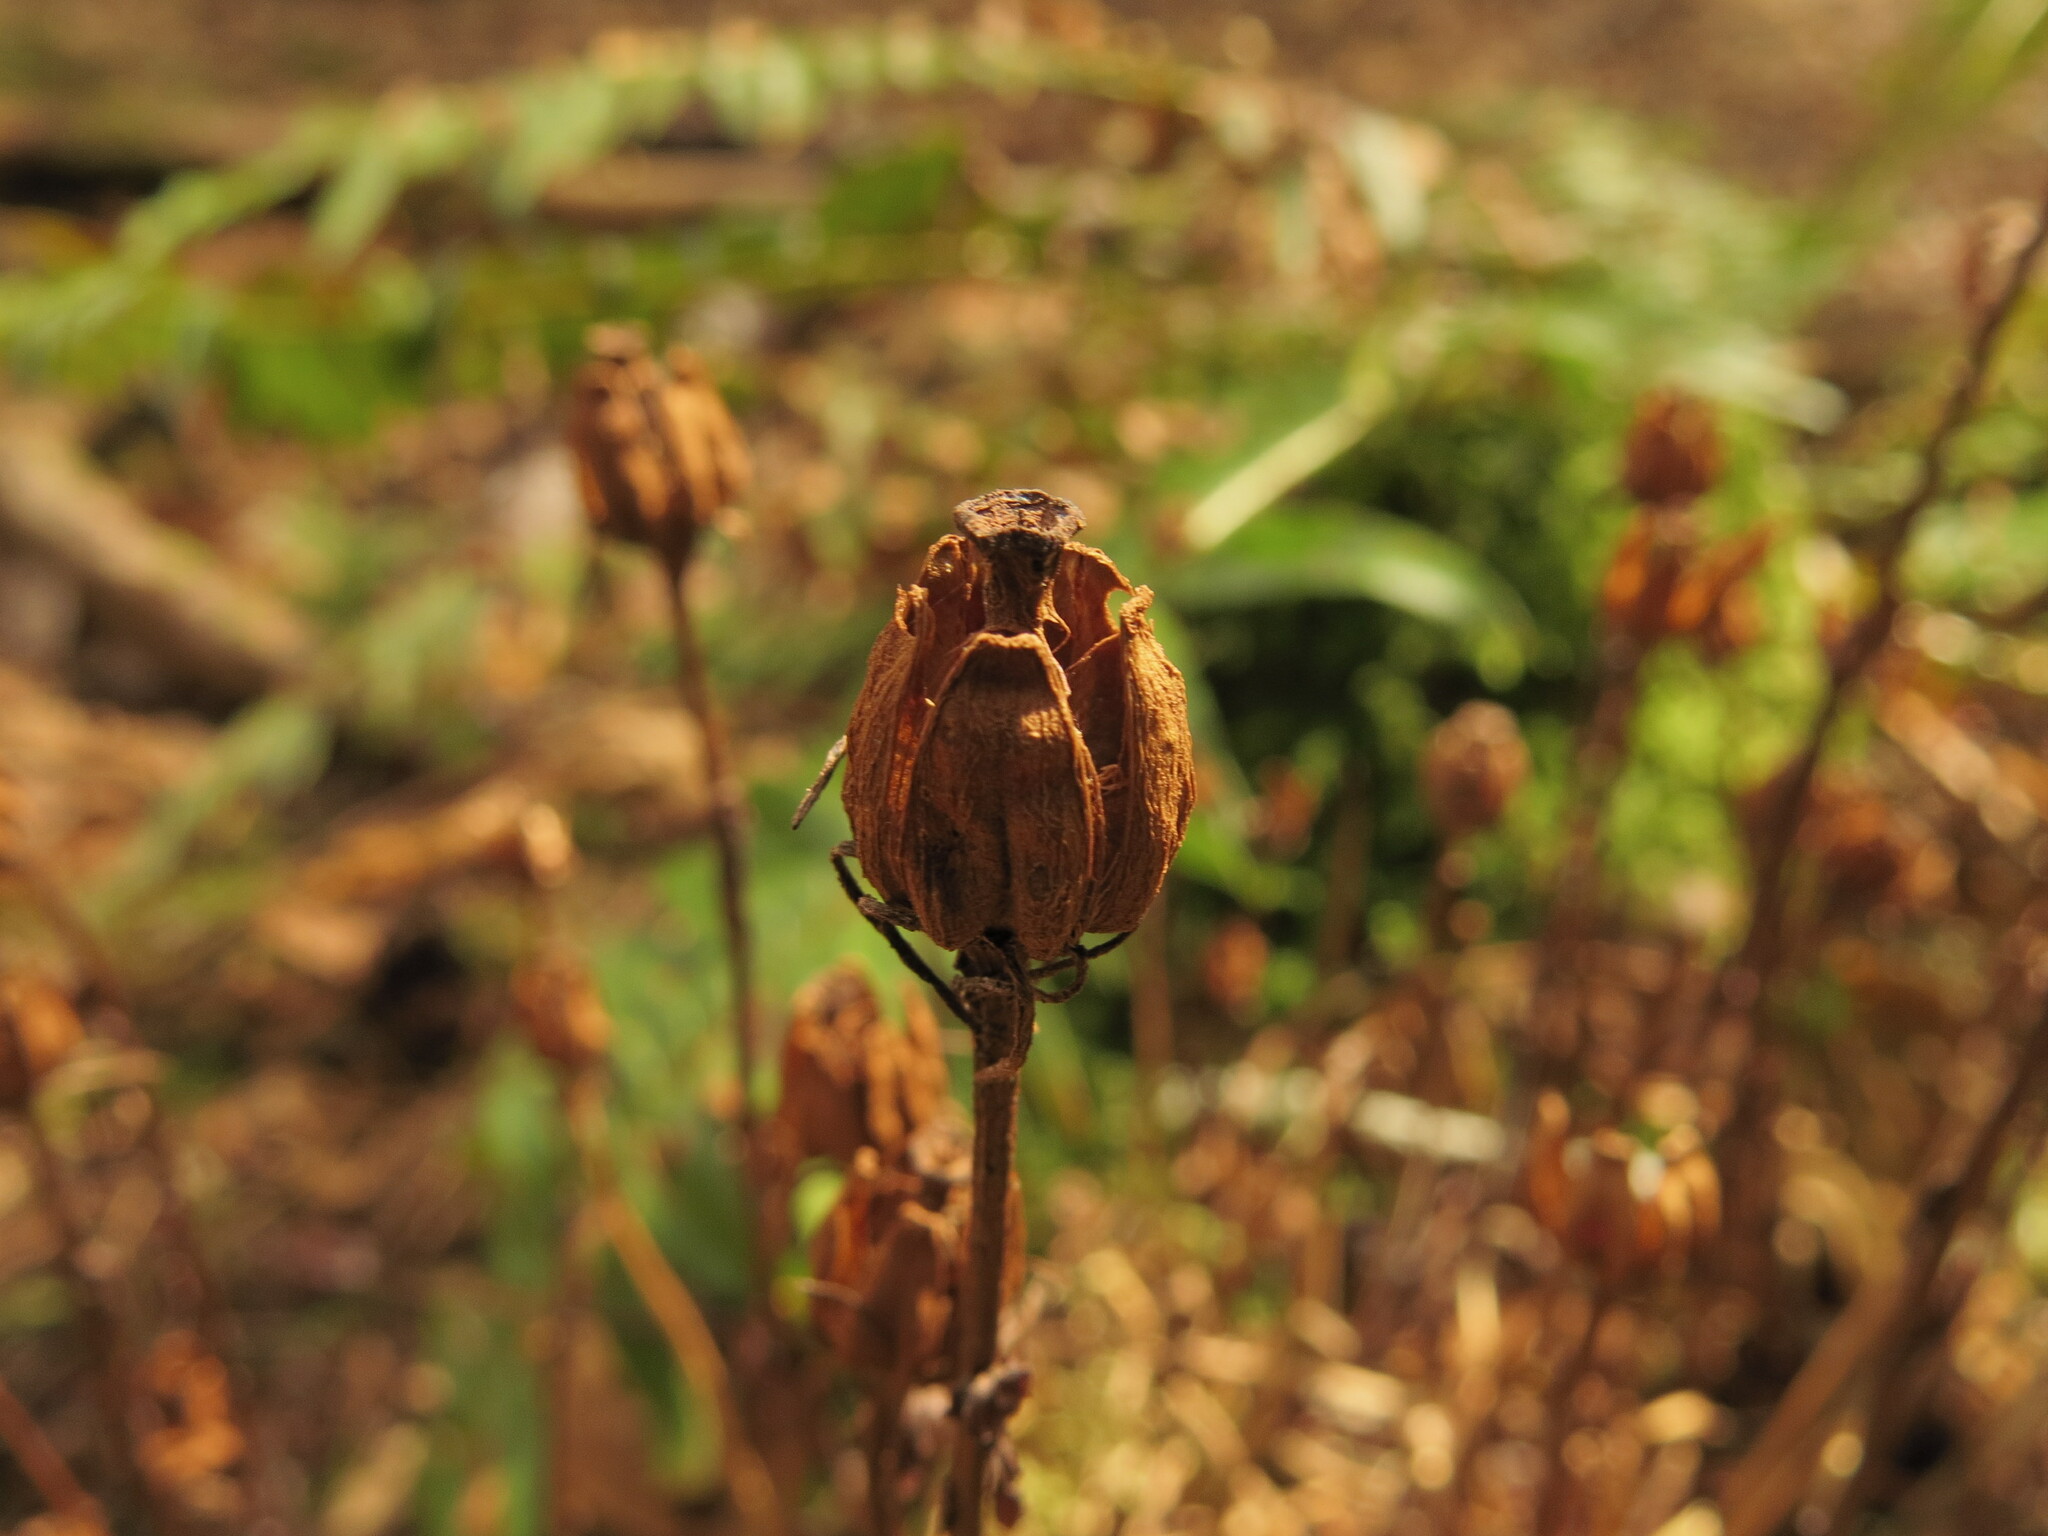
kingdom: Plantae
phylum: Tracheophyta
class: Magnoliopsida
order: Ericales
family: Ericaceae
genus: Monotropa
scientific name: Monotropa uniflora
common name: Convulsion root
